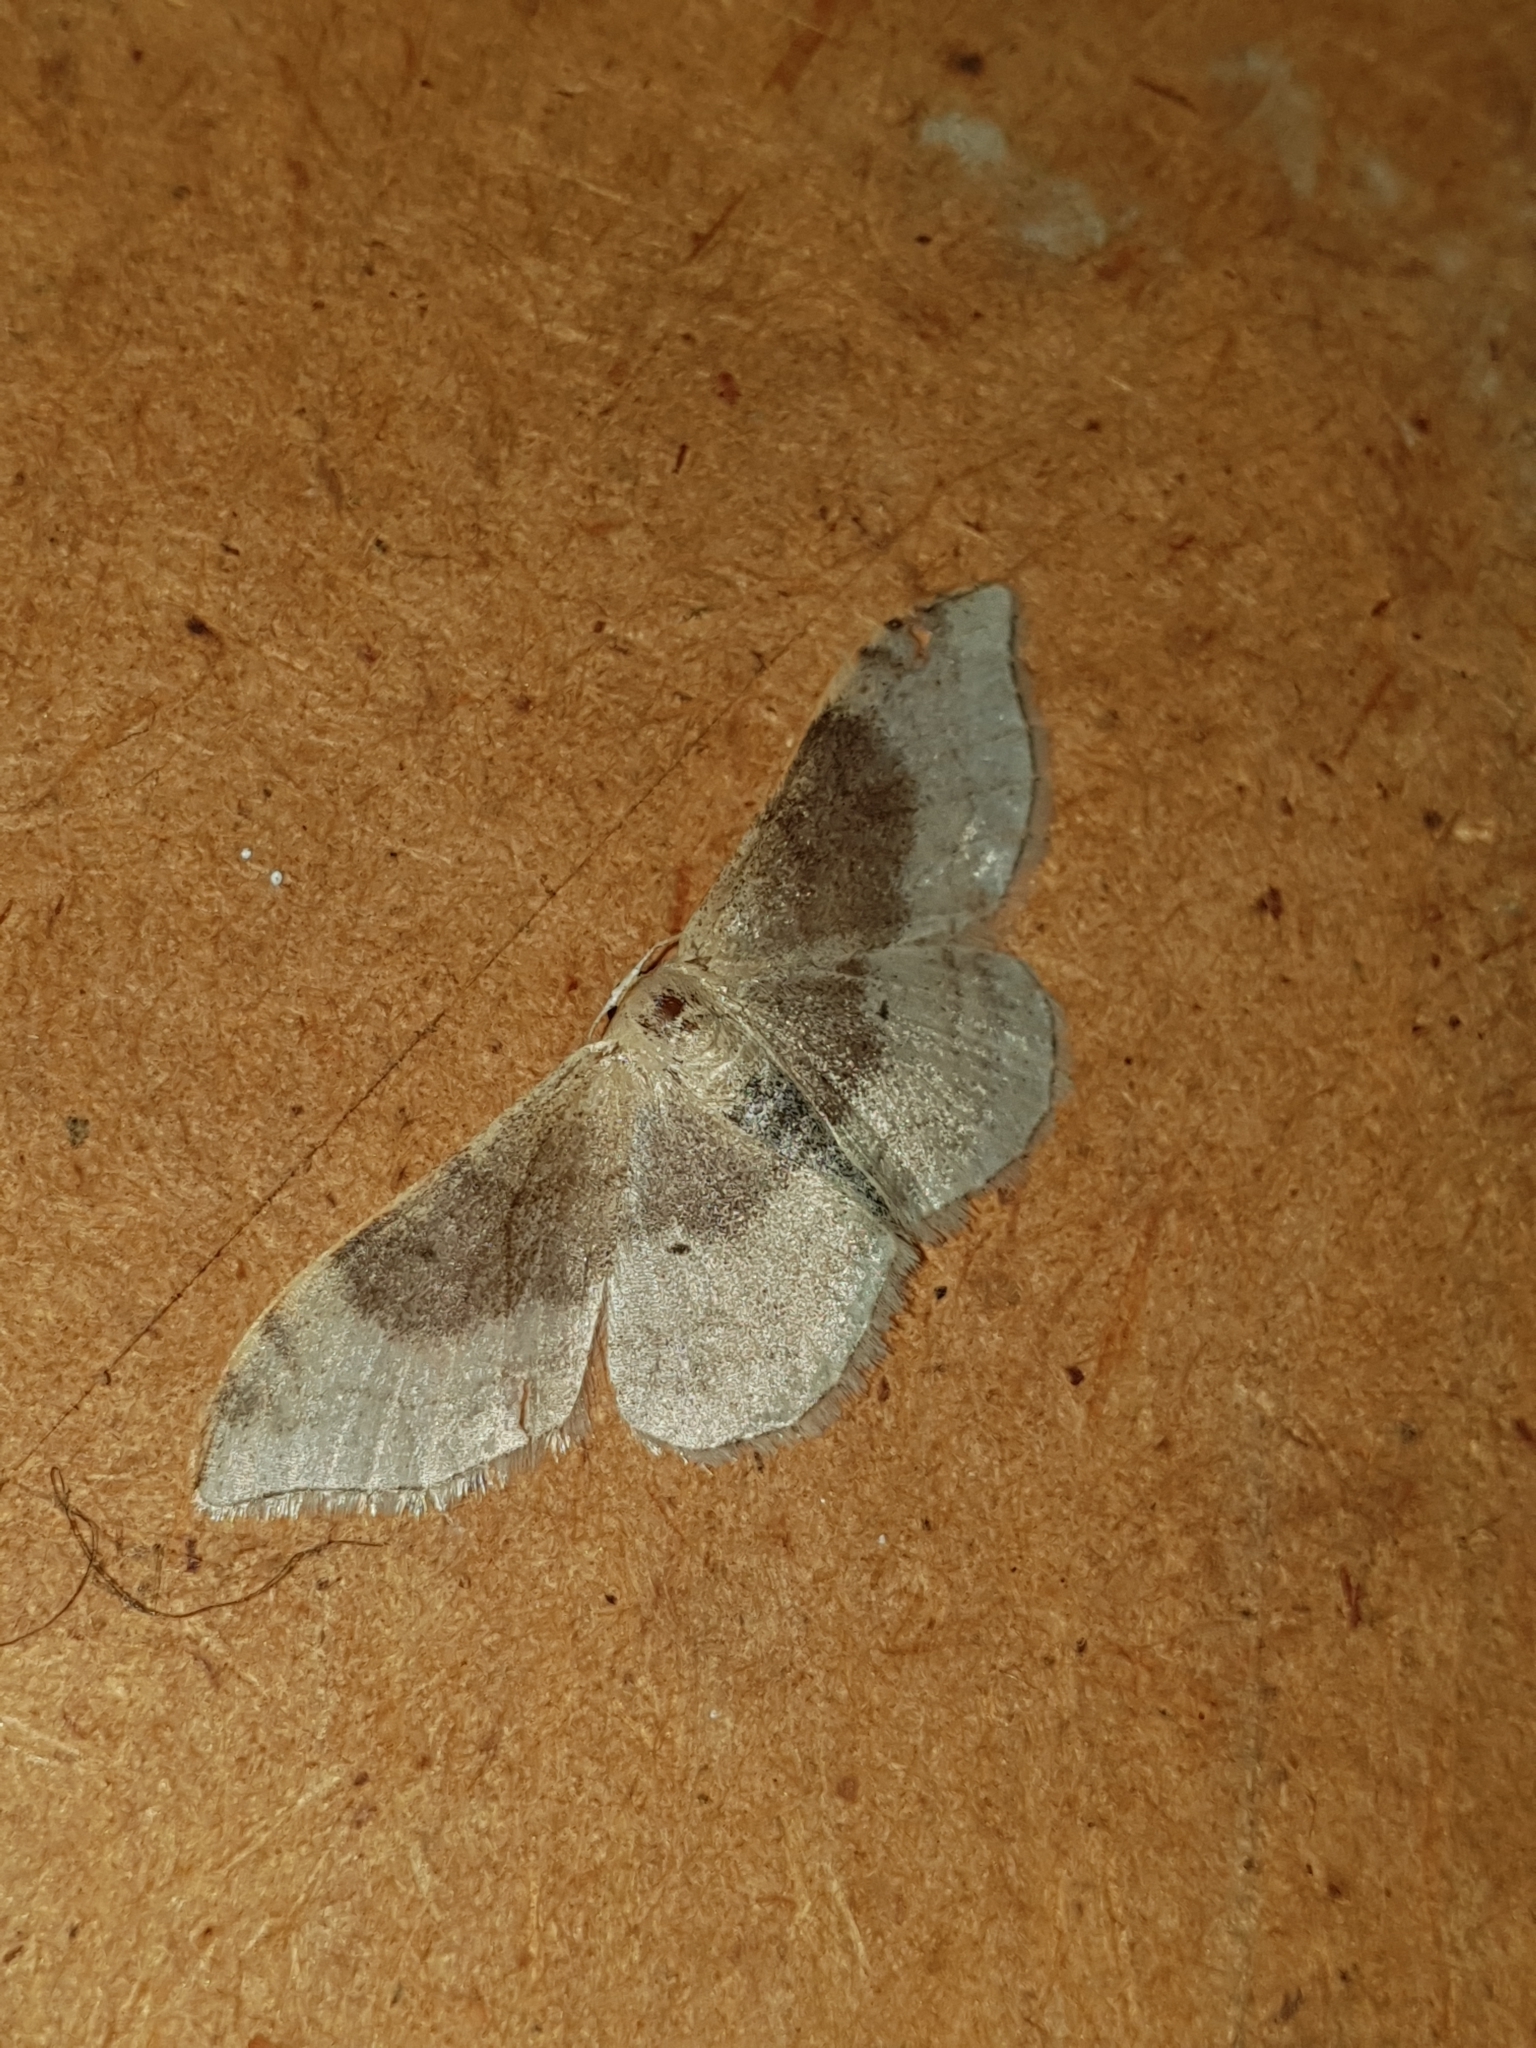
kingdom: Animalia
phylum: Arthropoda
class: Insecta
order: Lepidoptera
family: Geometridae
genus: Idaea
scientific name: Idaea degeneraria
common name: Portland ribbon wave
